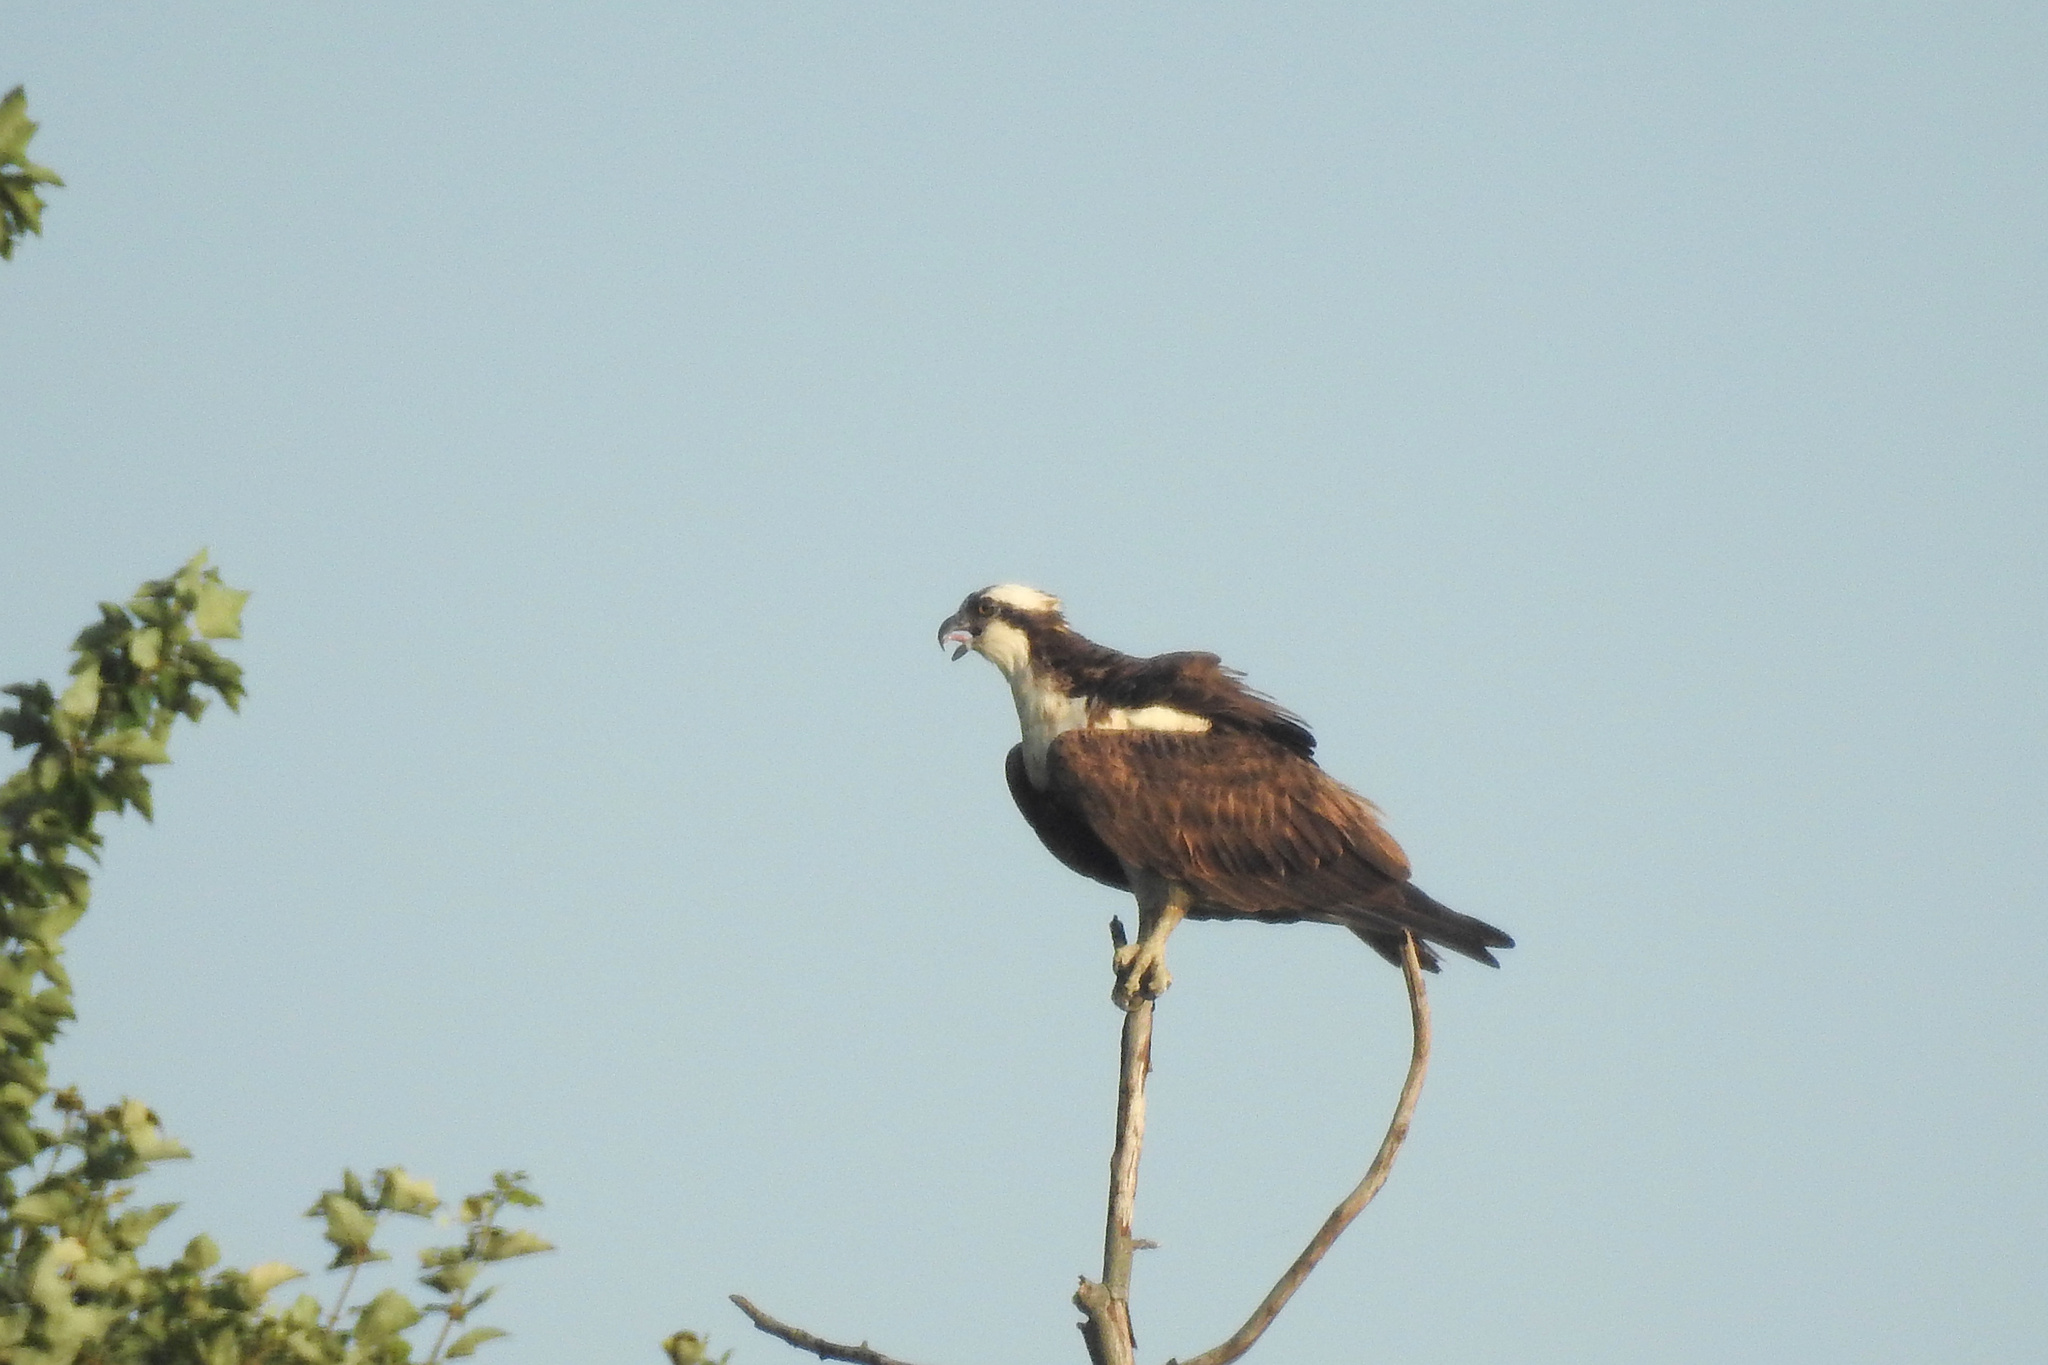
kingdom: Animalia
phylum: Chordata
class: Aves
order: Accipitriformes
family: Pandionidae
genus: Pandion
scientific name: Pandion haliaetus
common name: Osprey
